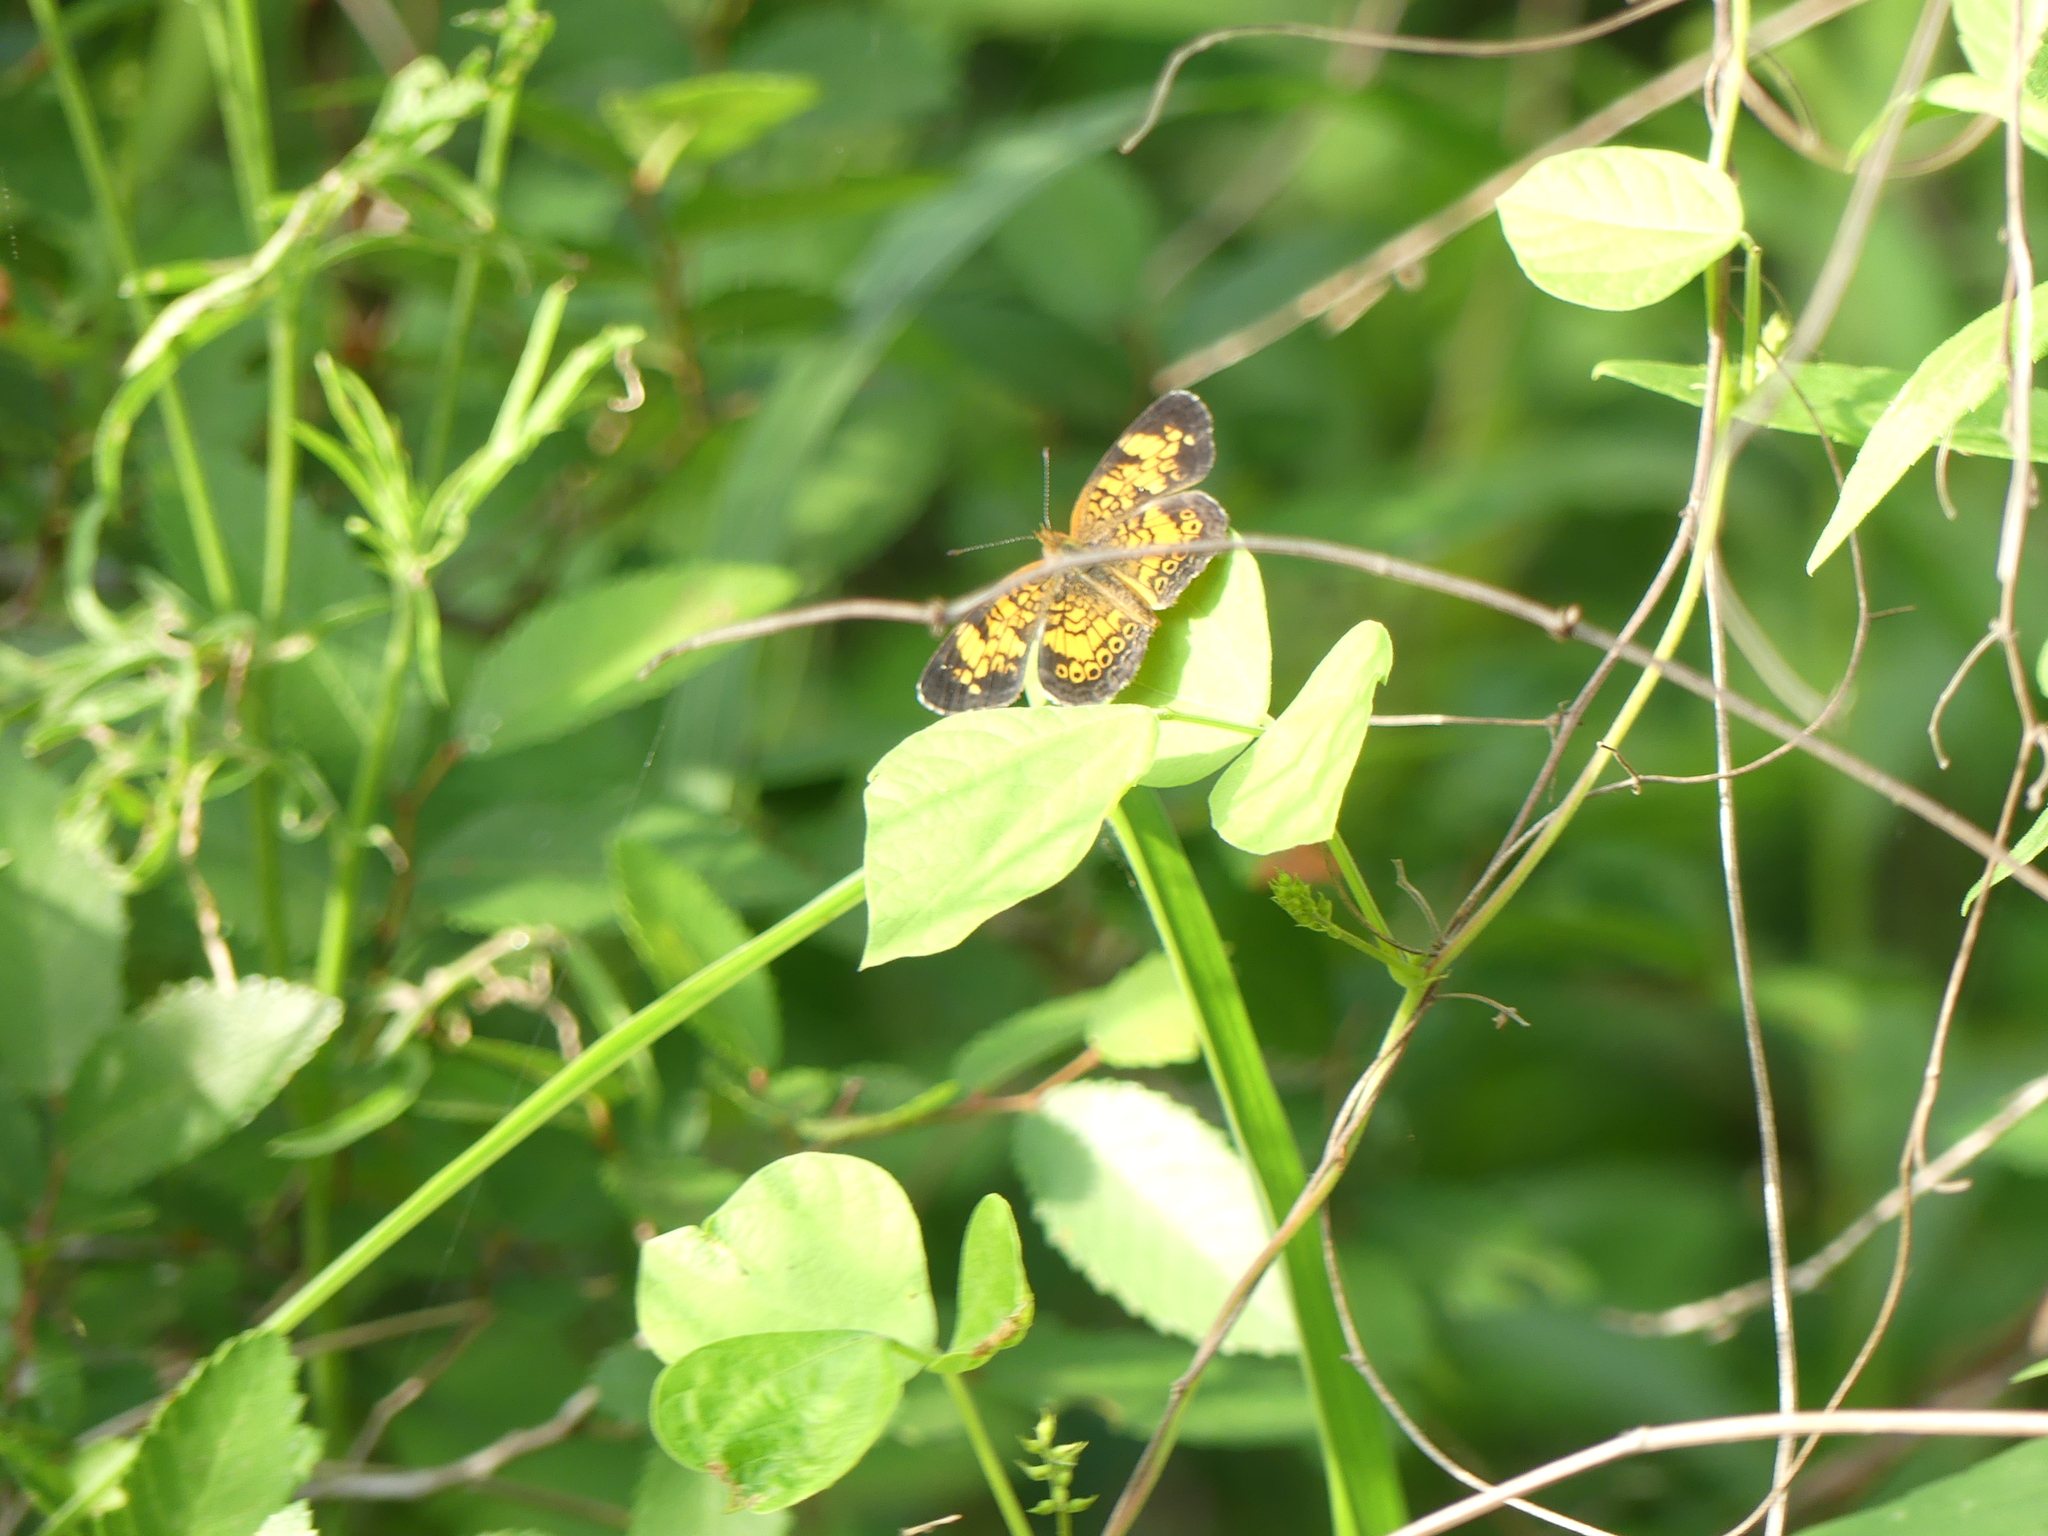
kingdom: Animalia
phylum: Arthropoda
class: Insecta
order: Lepidoptera
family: Nymphalidae
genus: Phyciodes
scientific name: Phyciodes tharos
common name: Pearl crescent
